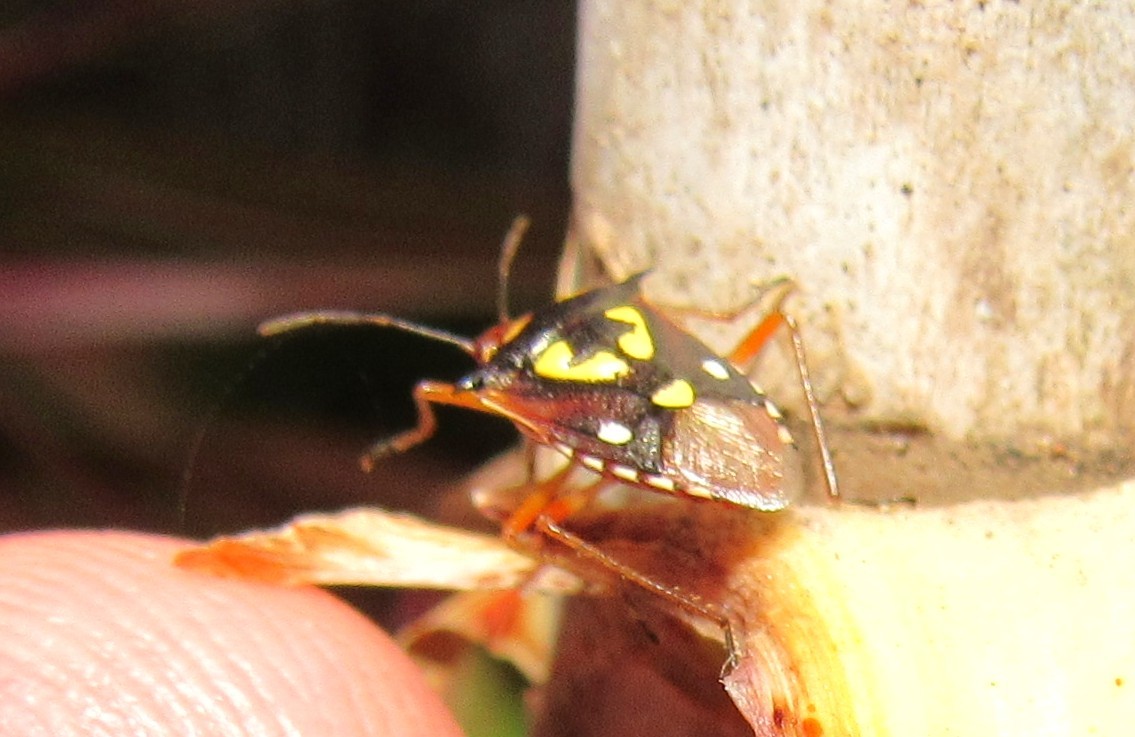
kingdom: Animalia
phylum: Arthropoda
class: Insecta
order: Hemiptera
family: Pentatomidae
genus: Oebalus
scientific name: Oebalus poecilus
